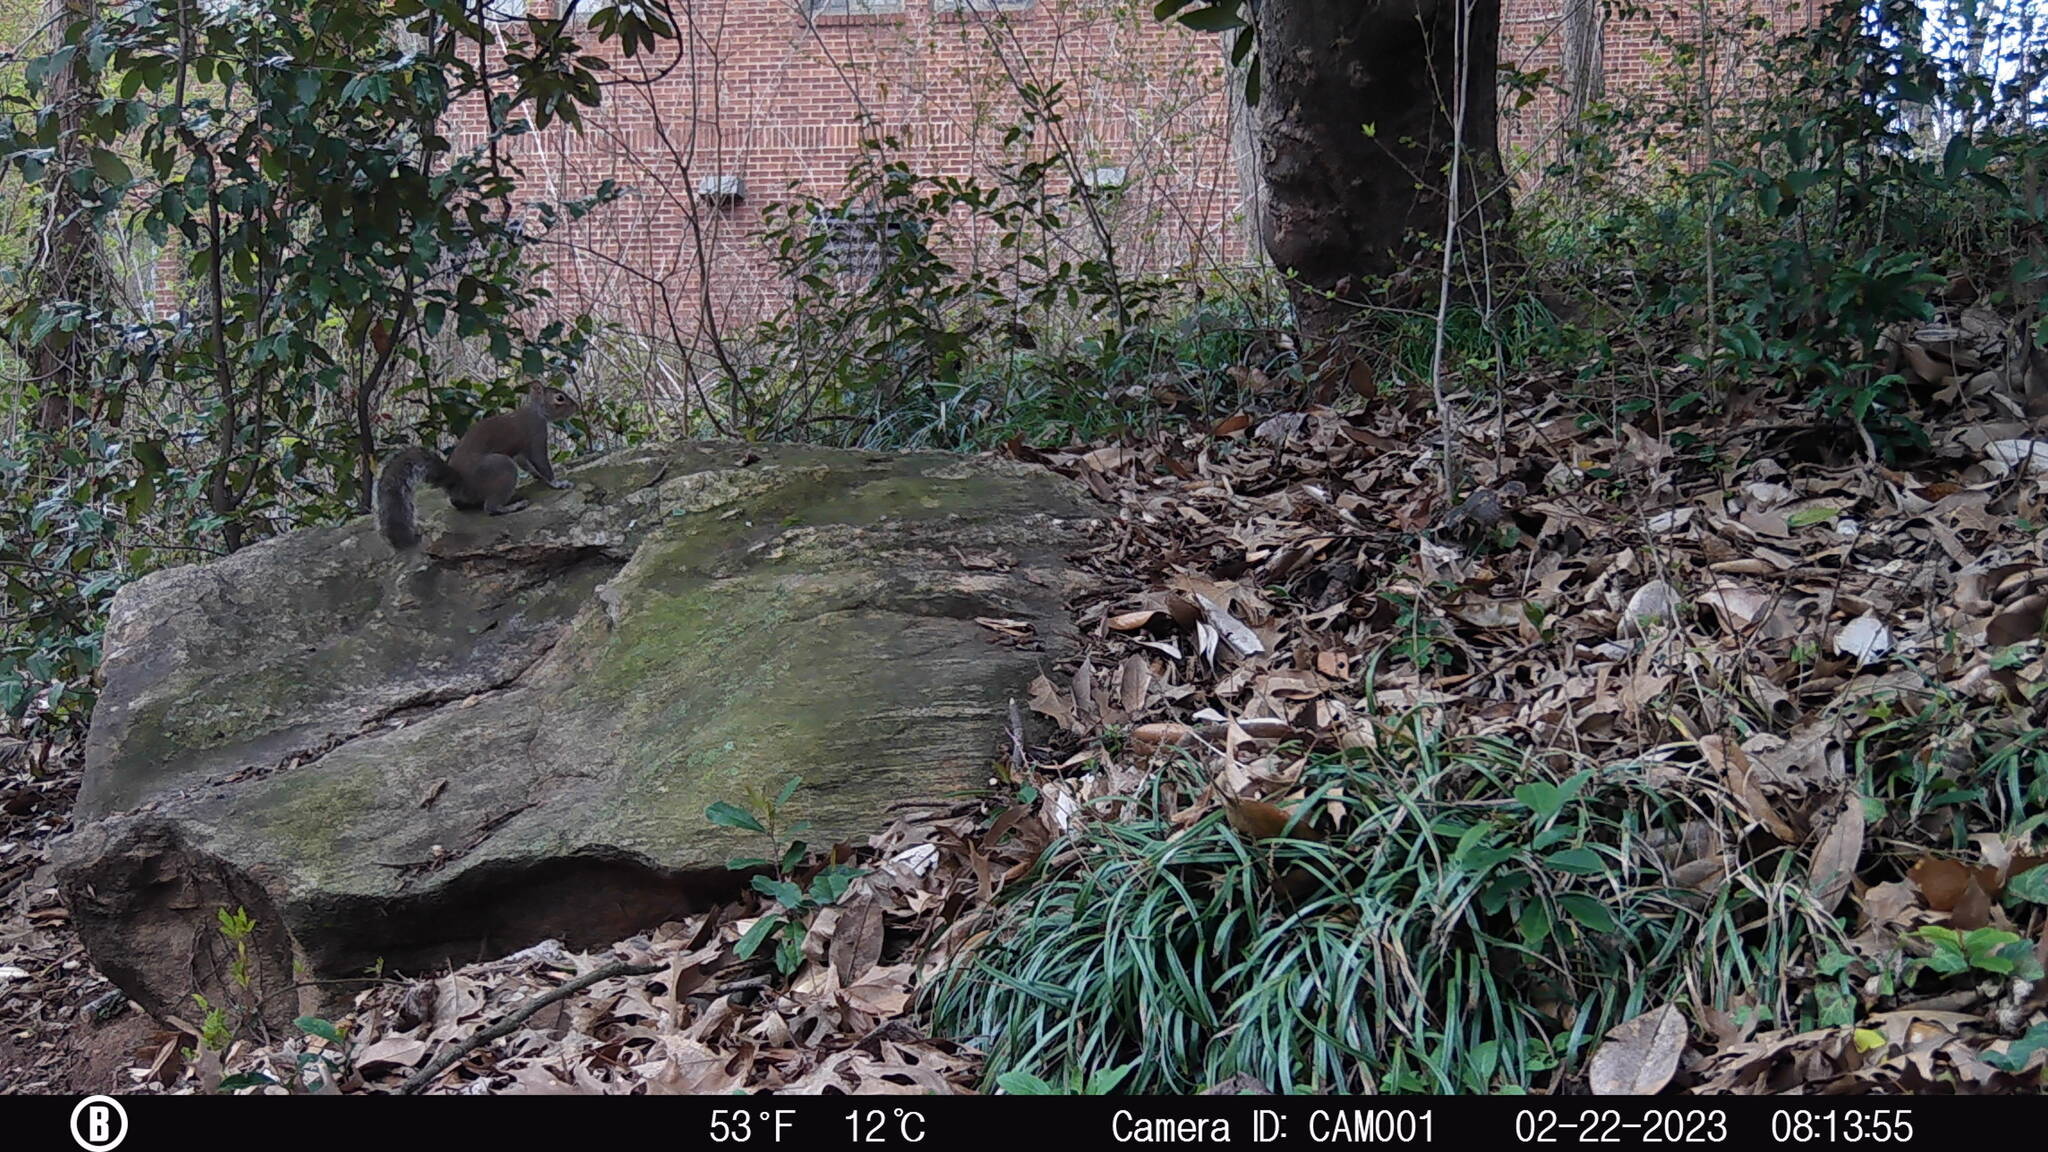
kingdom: Animalia
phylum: Chordata
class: Mammalia
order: Rodentia
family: Sciuridae
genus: Sciurus
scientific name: Sciurus carolinensis
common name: Eastern gray squirrel
